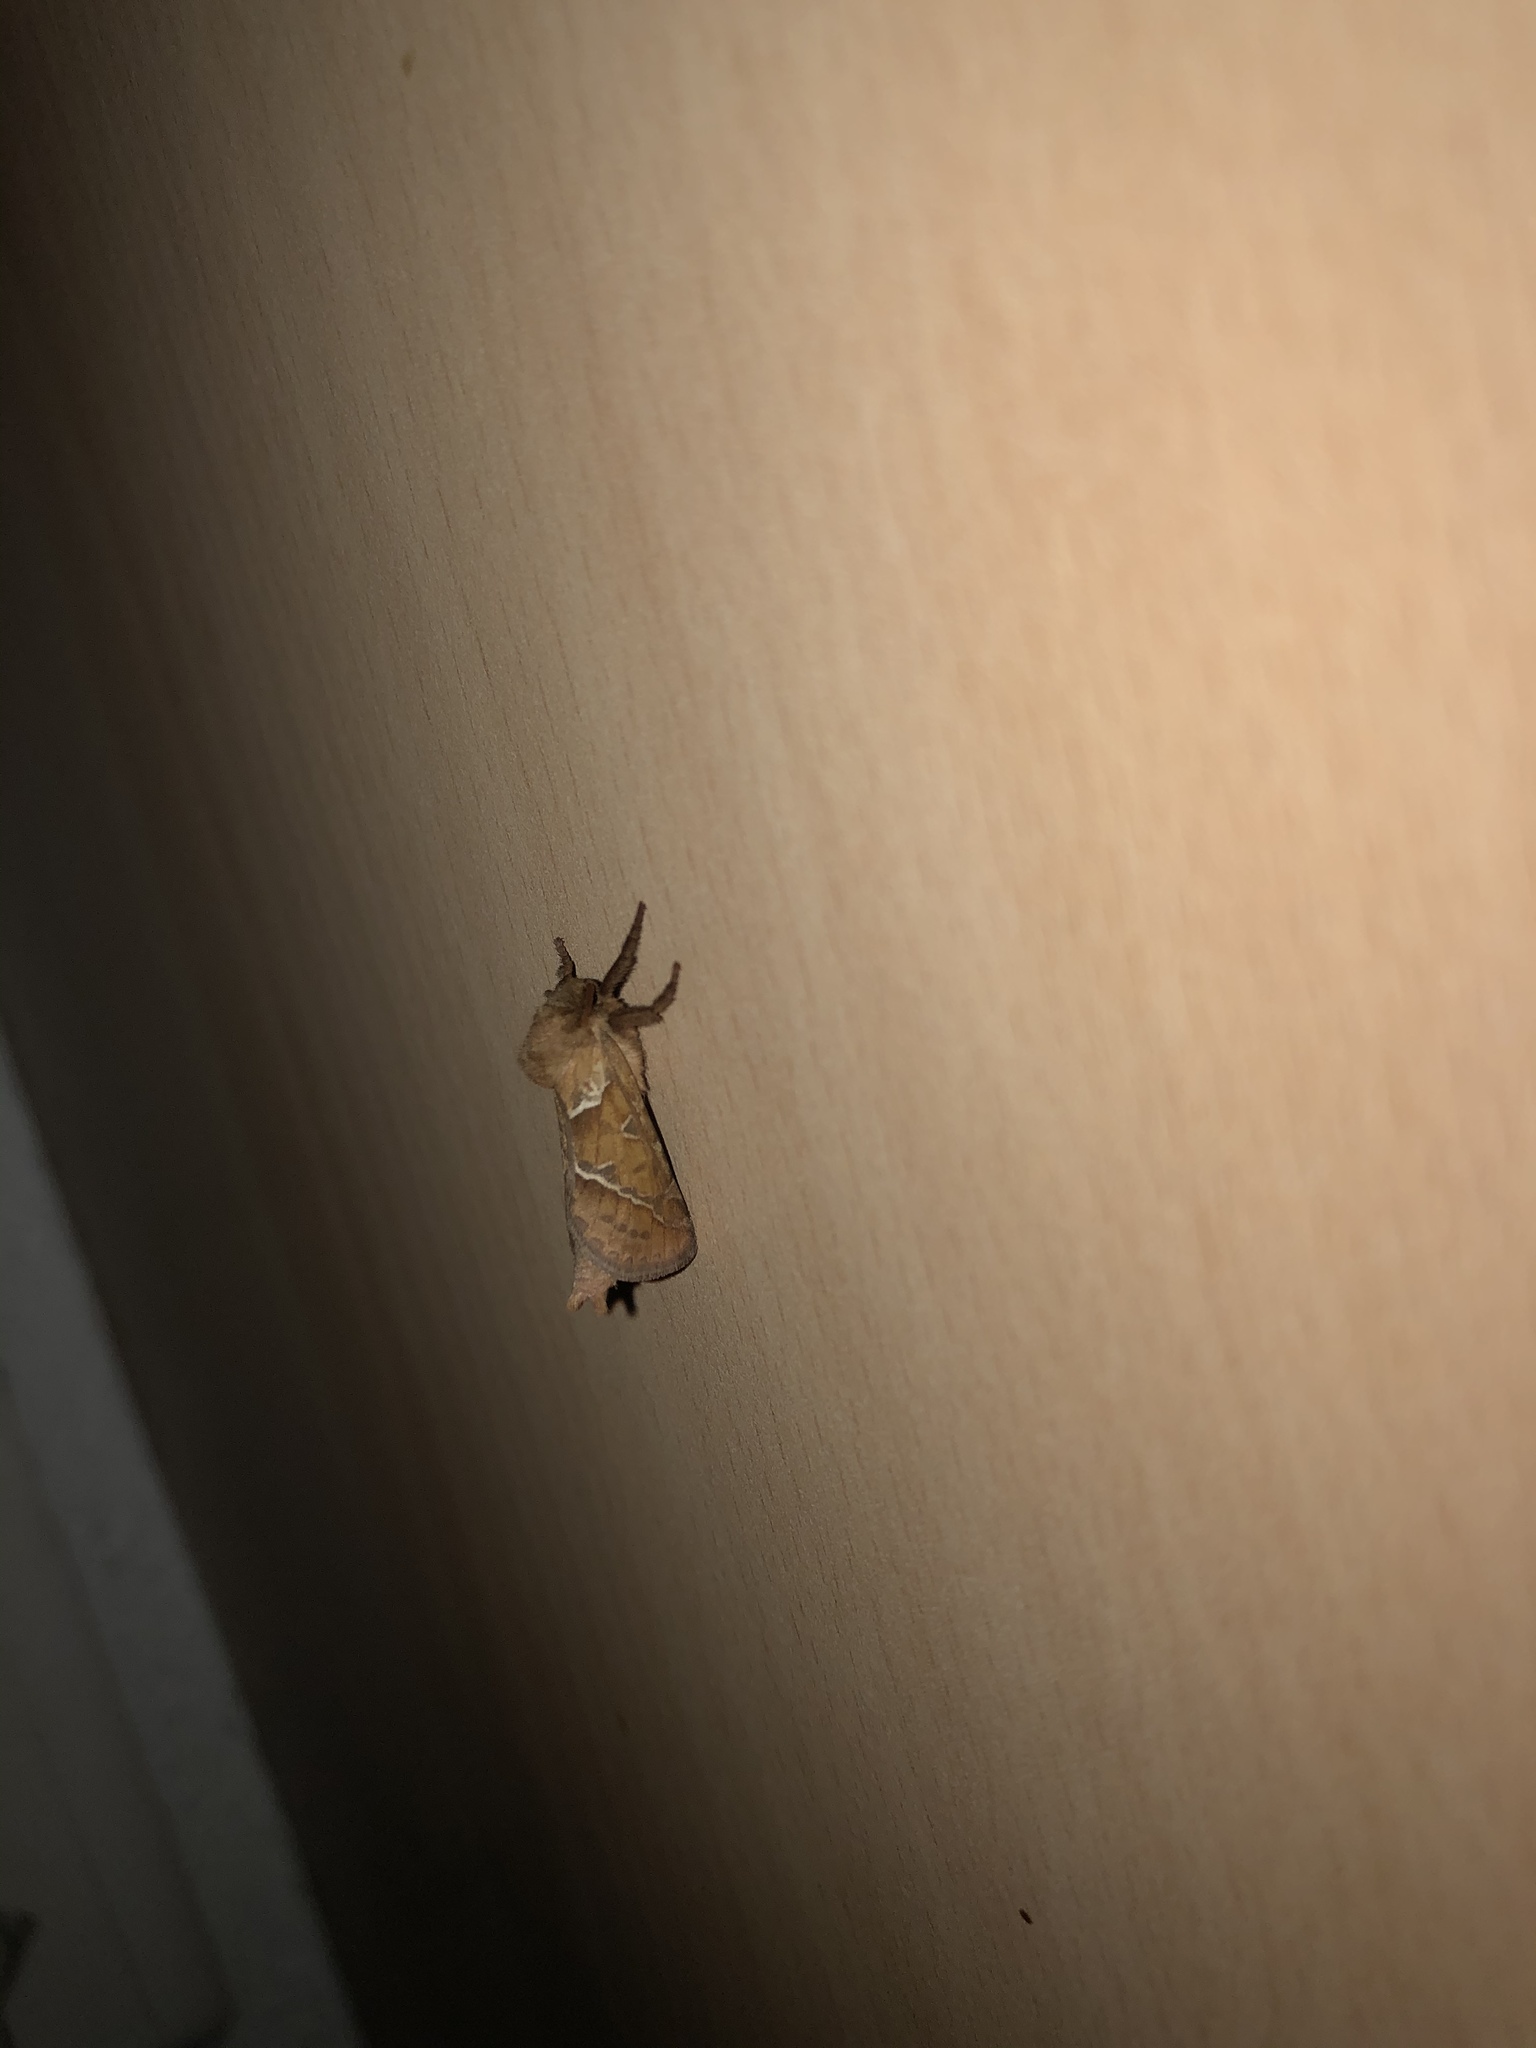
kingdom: Animalia
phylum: Arthropoda
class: Insecta
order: Lepidoptera
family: Hepialidae
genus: Triodia
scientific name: Triodia sylvina
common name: Orange swift
